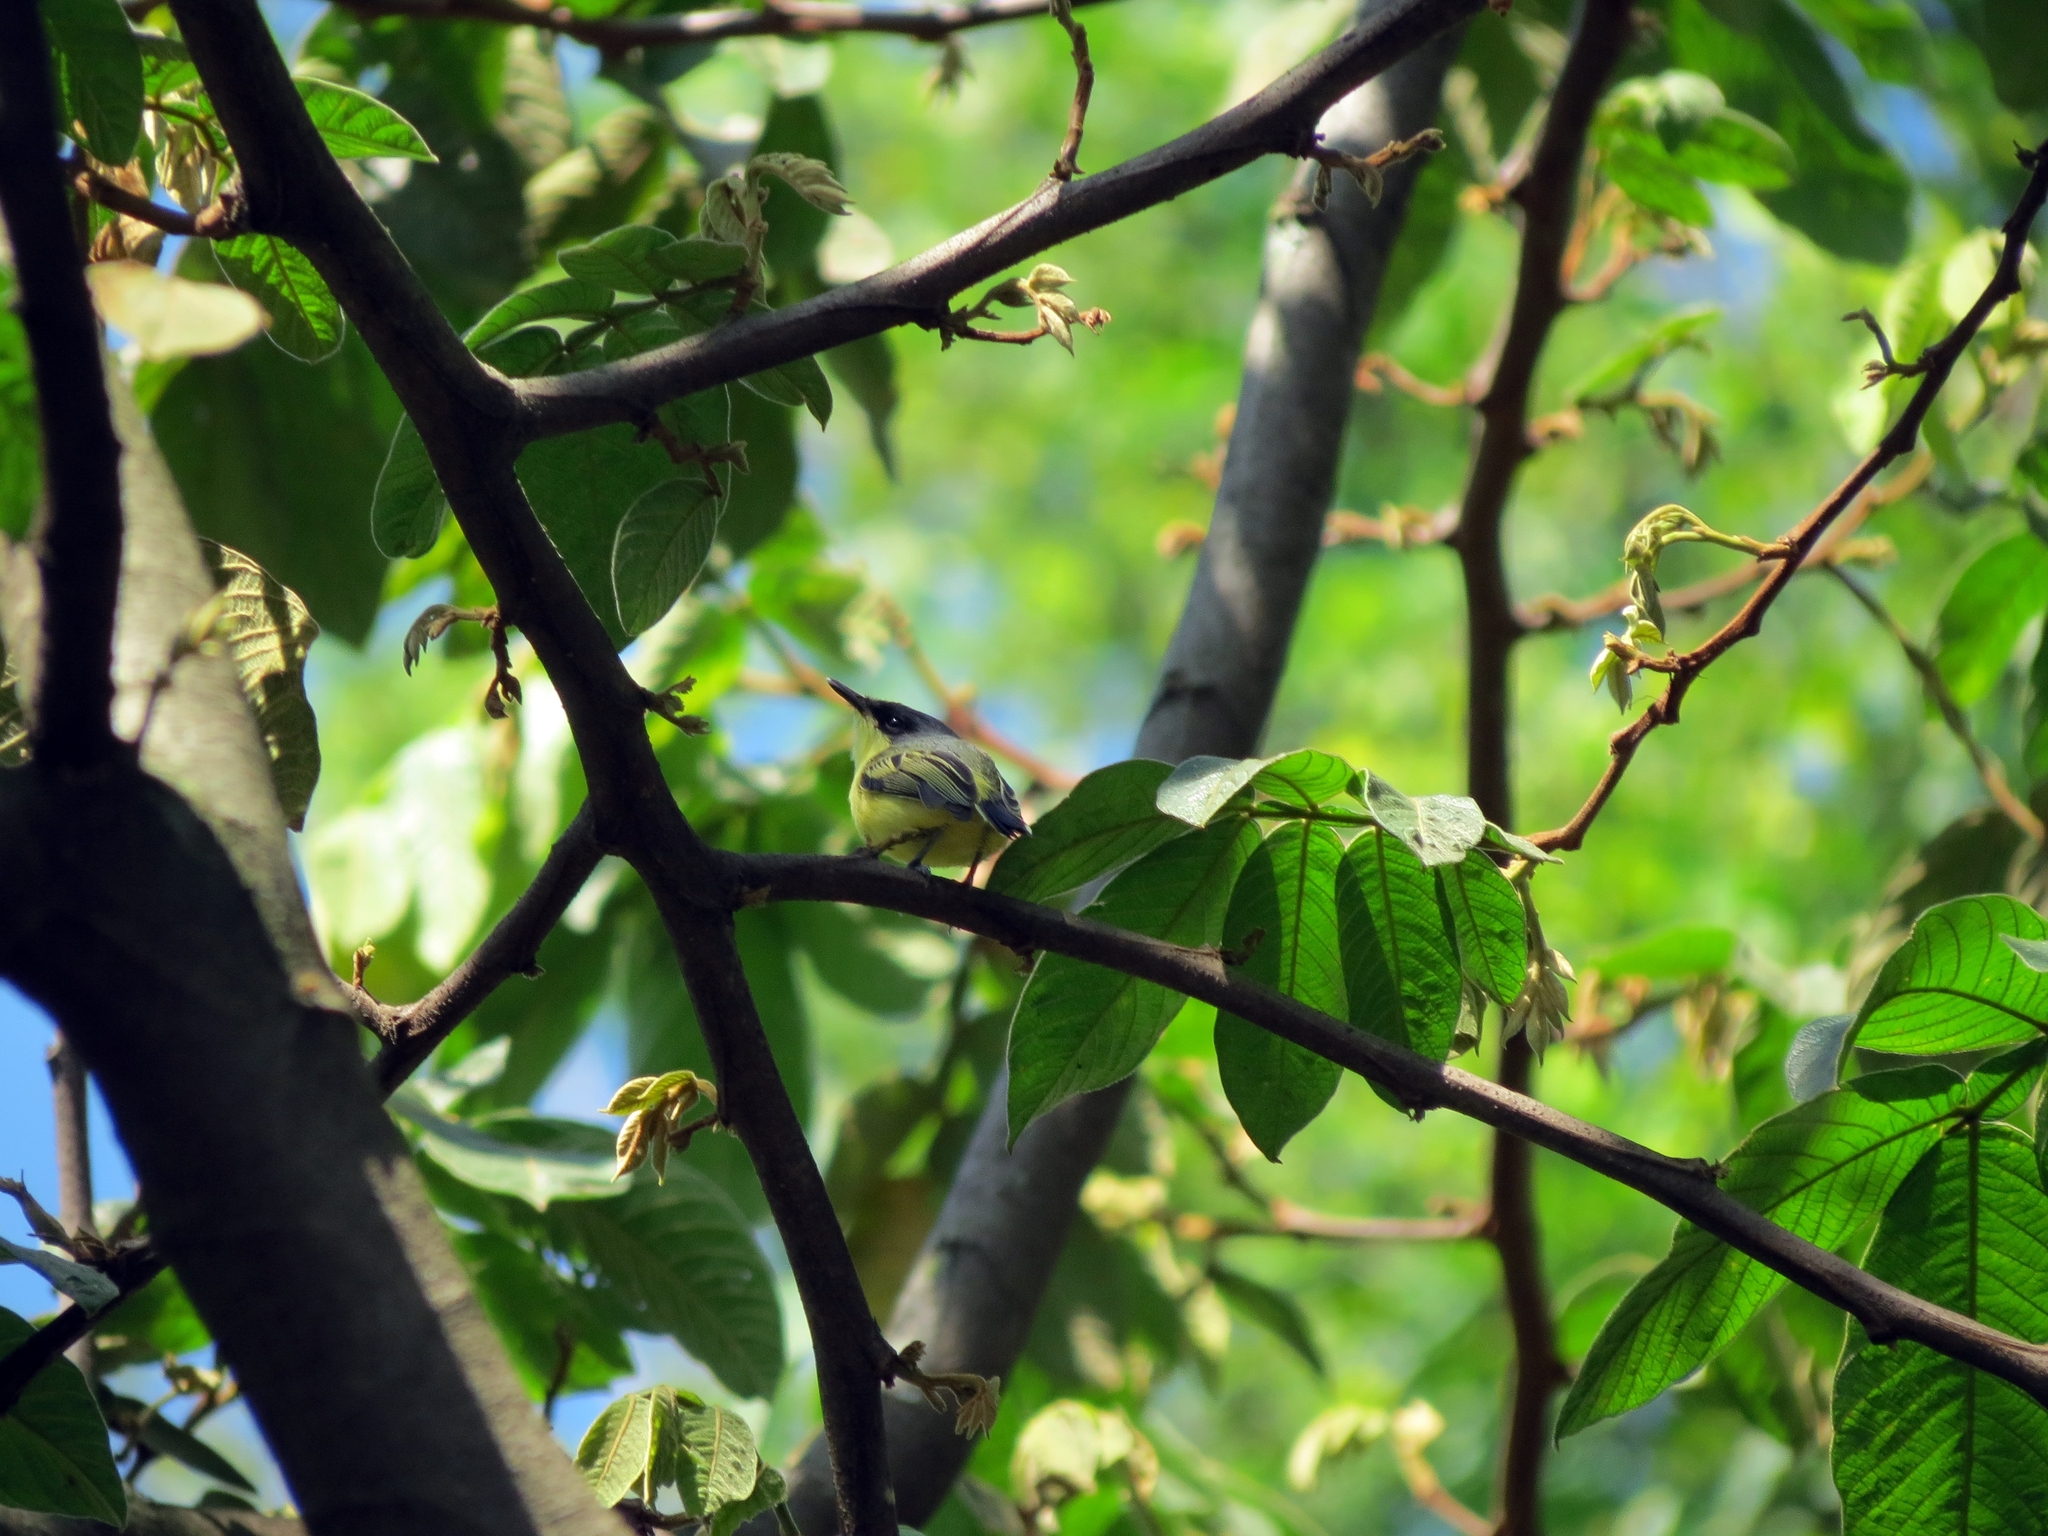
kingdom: Animalia
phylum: Chordata
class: Aves
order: Passeriformes
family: Tyrannidae
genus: Todirostrum
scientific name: Todirostrum cinereum
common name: Common tody-flycatcher
